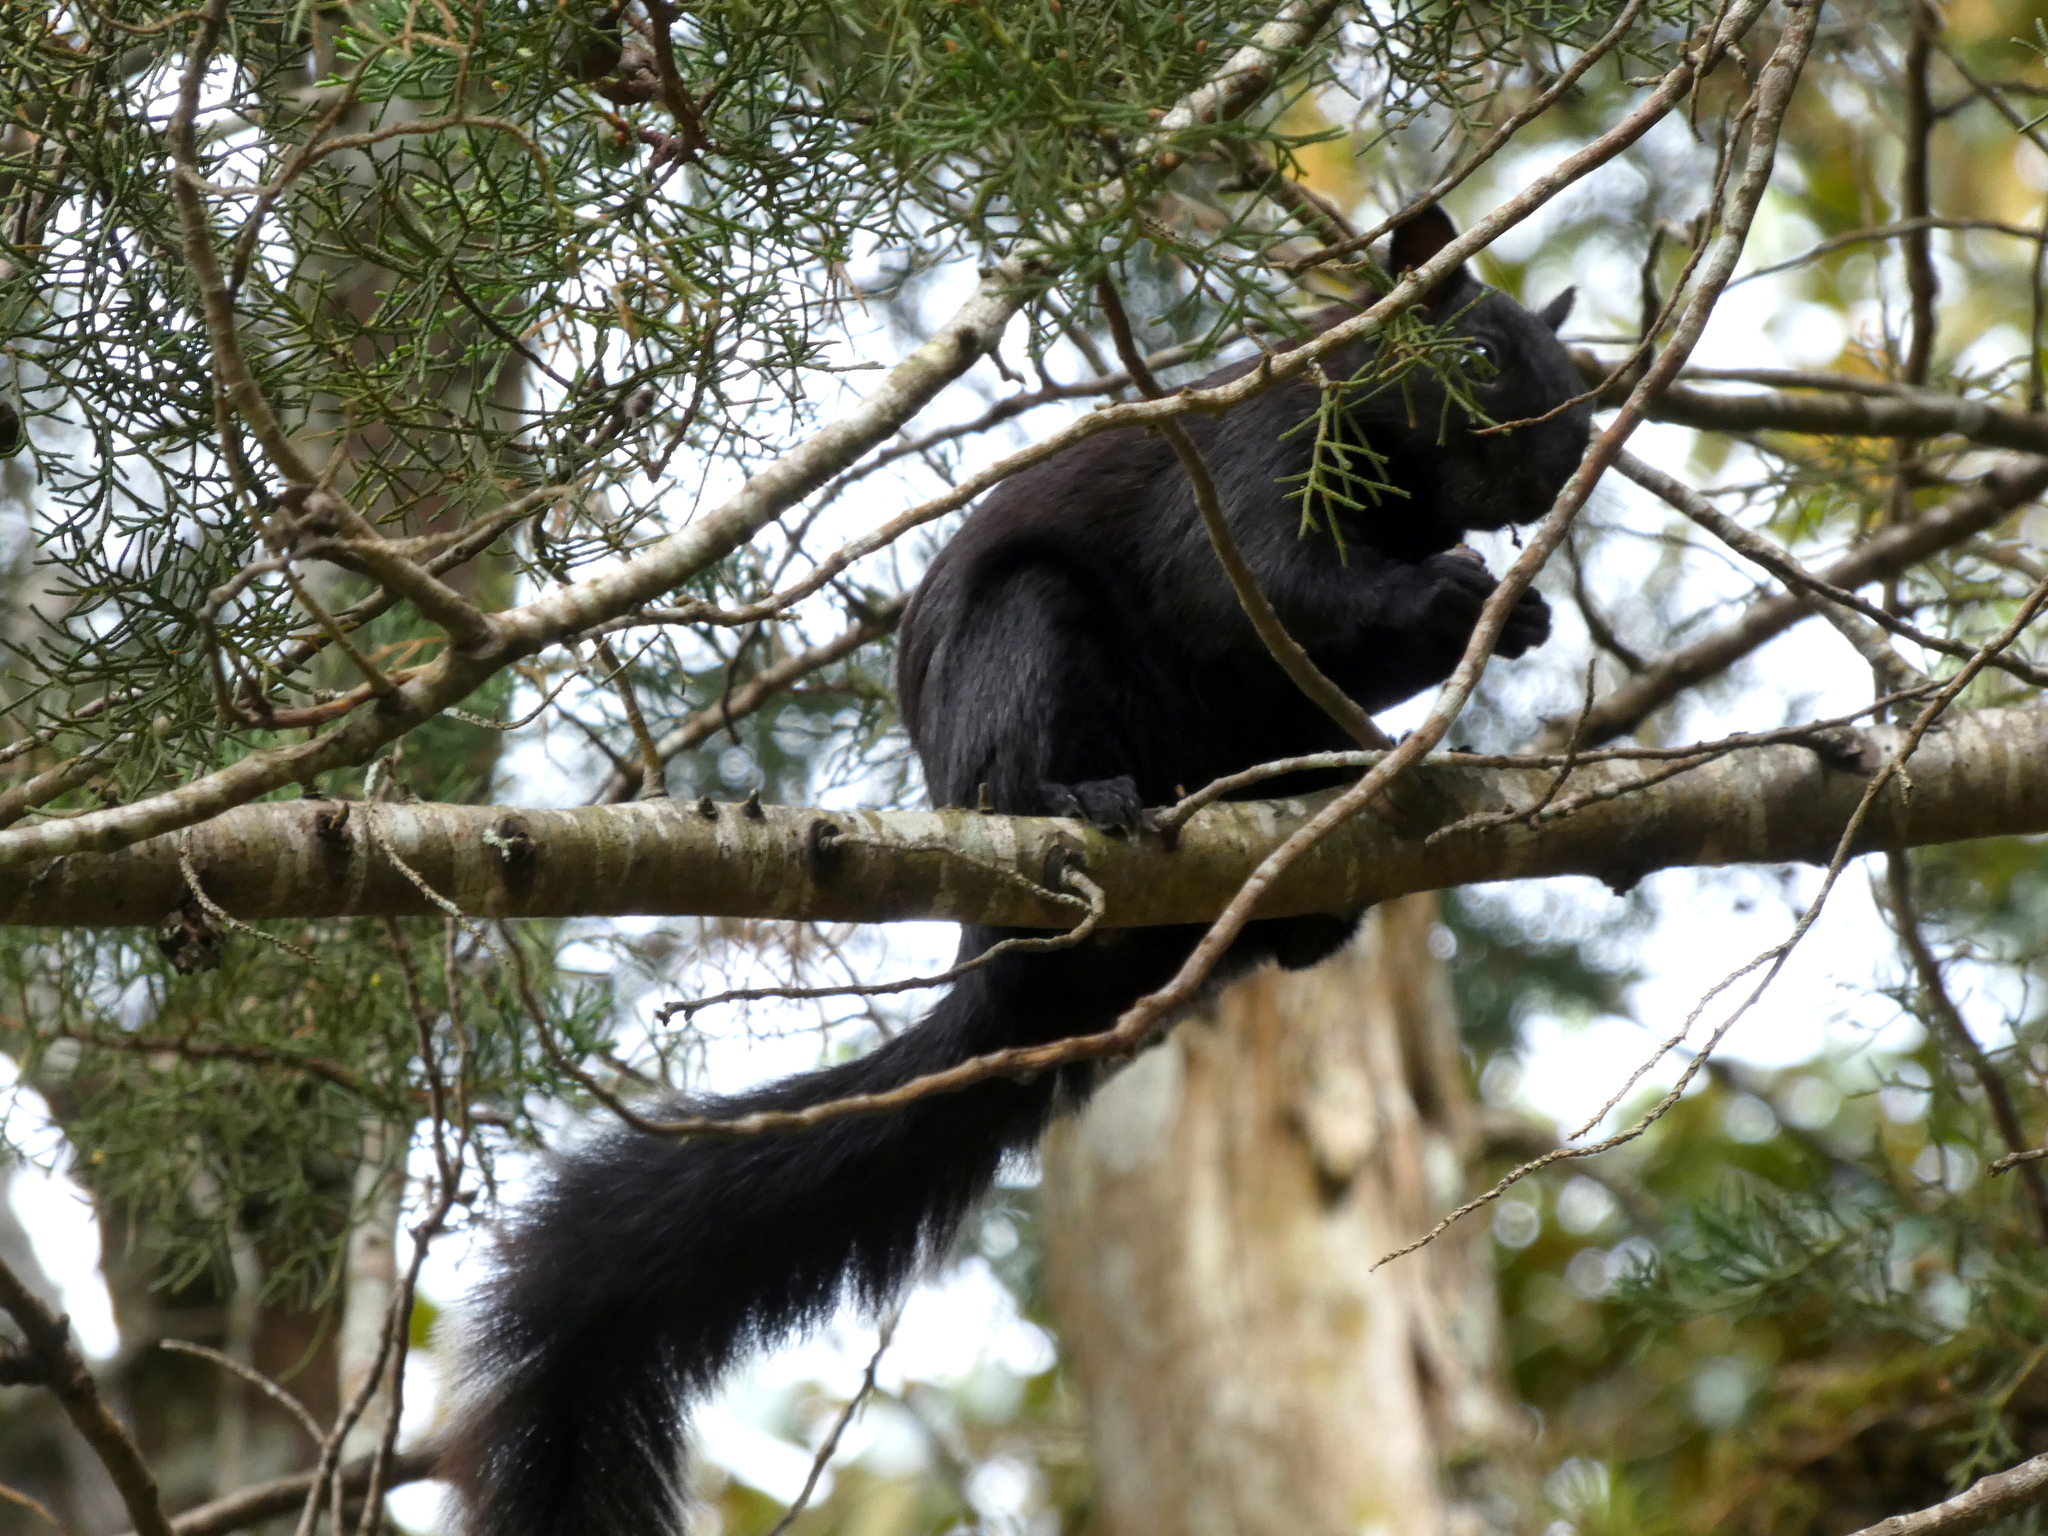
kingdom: Animalia
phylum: Chordata
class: Mammalia
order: Rodentia
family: Sciuridae
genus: Sciurus
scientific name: Sciurus variegatoides
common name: Variegated squirrel
